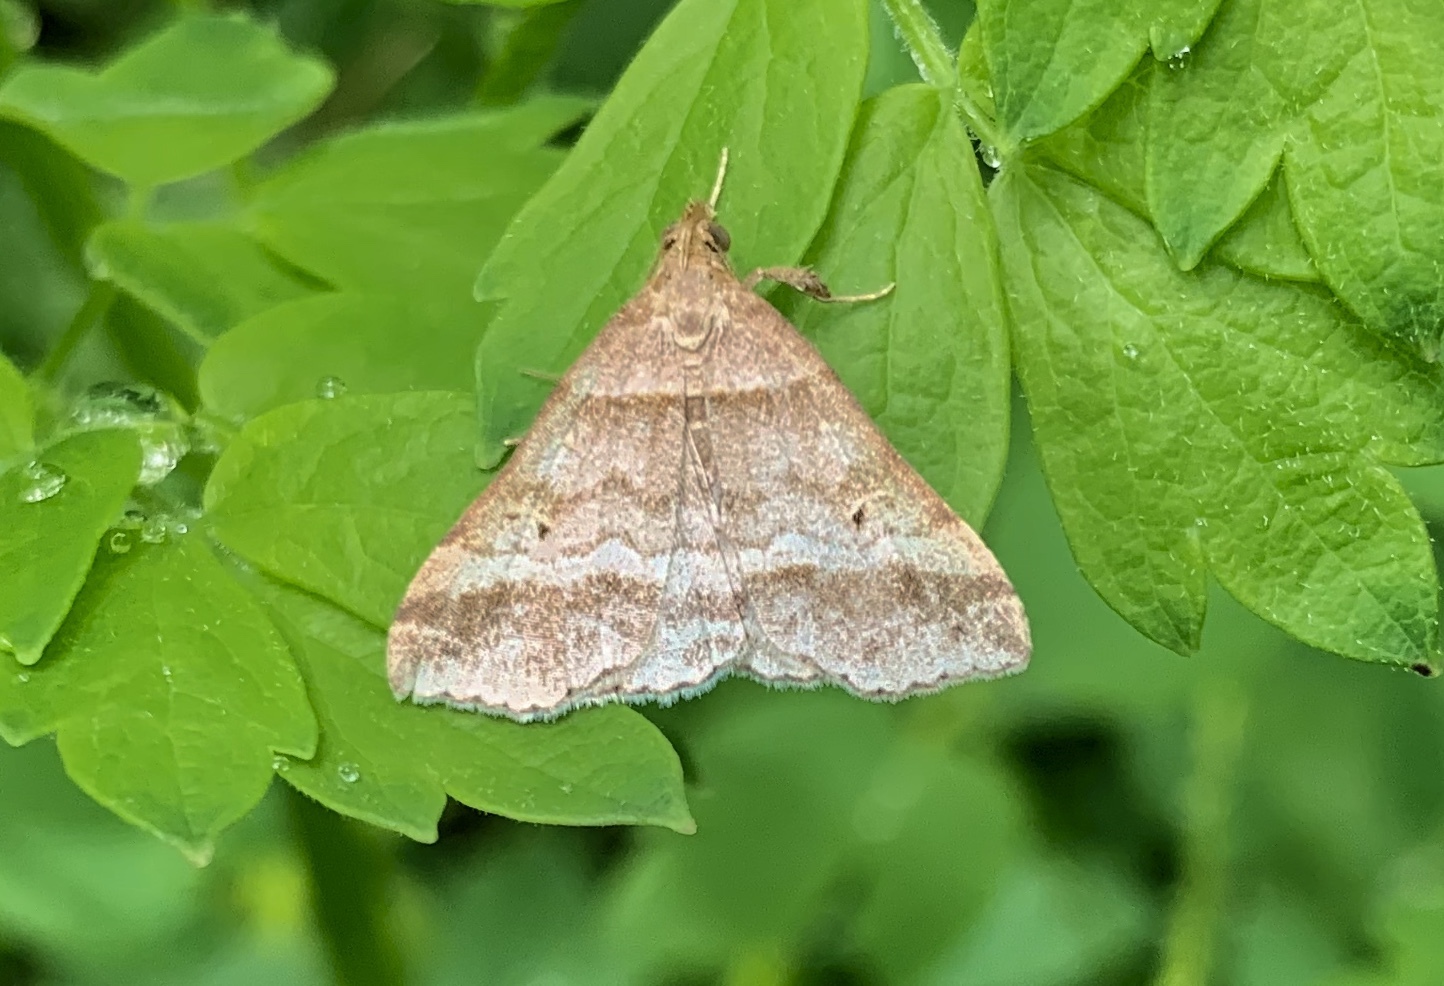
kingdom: Animalia
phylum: Arthropoda
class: Insecta
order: Lepidoptera
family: Erebidae
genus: Phaeolita
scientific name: Phaeolita pyramusalis
